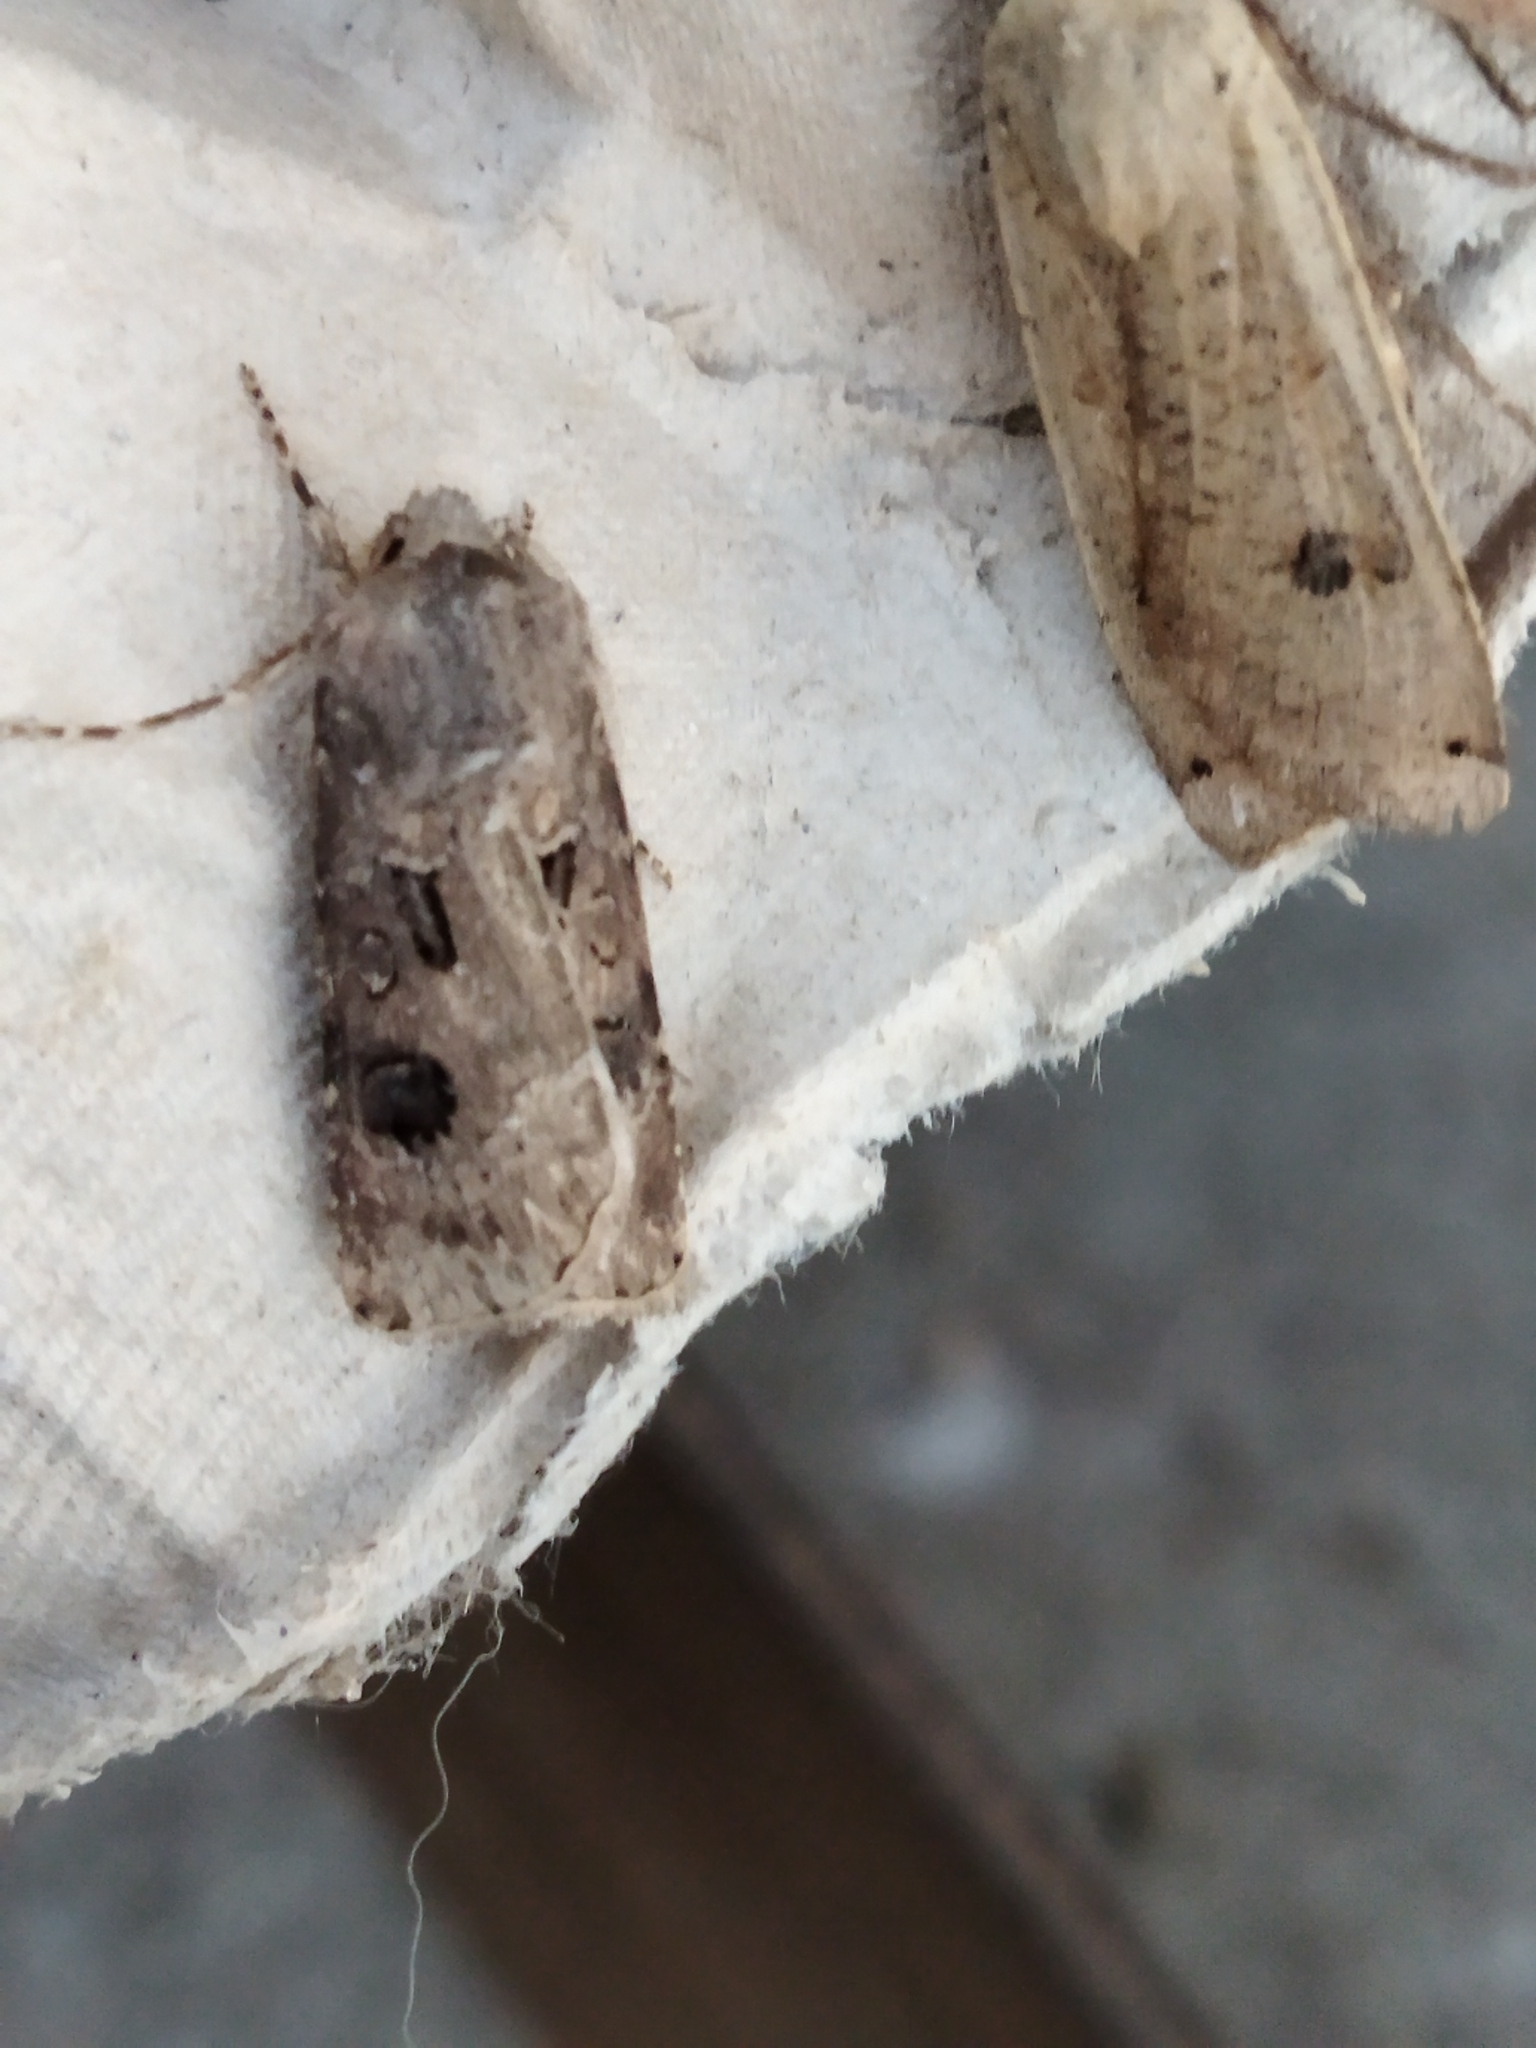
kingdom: Animalia
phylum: Arthropoda
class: Insecta
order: Lepidoptera
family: Noctuidae
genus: Agrotis
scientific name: Agrotis bigramma
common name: Great dart
